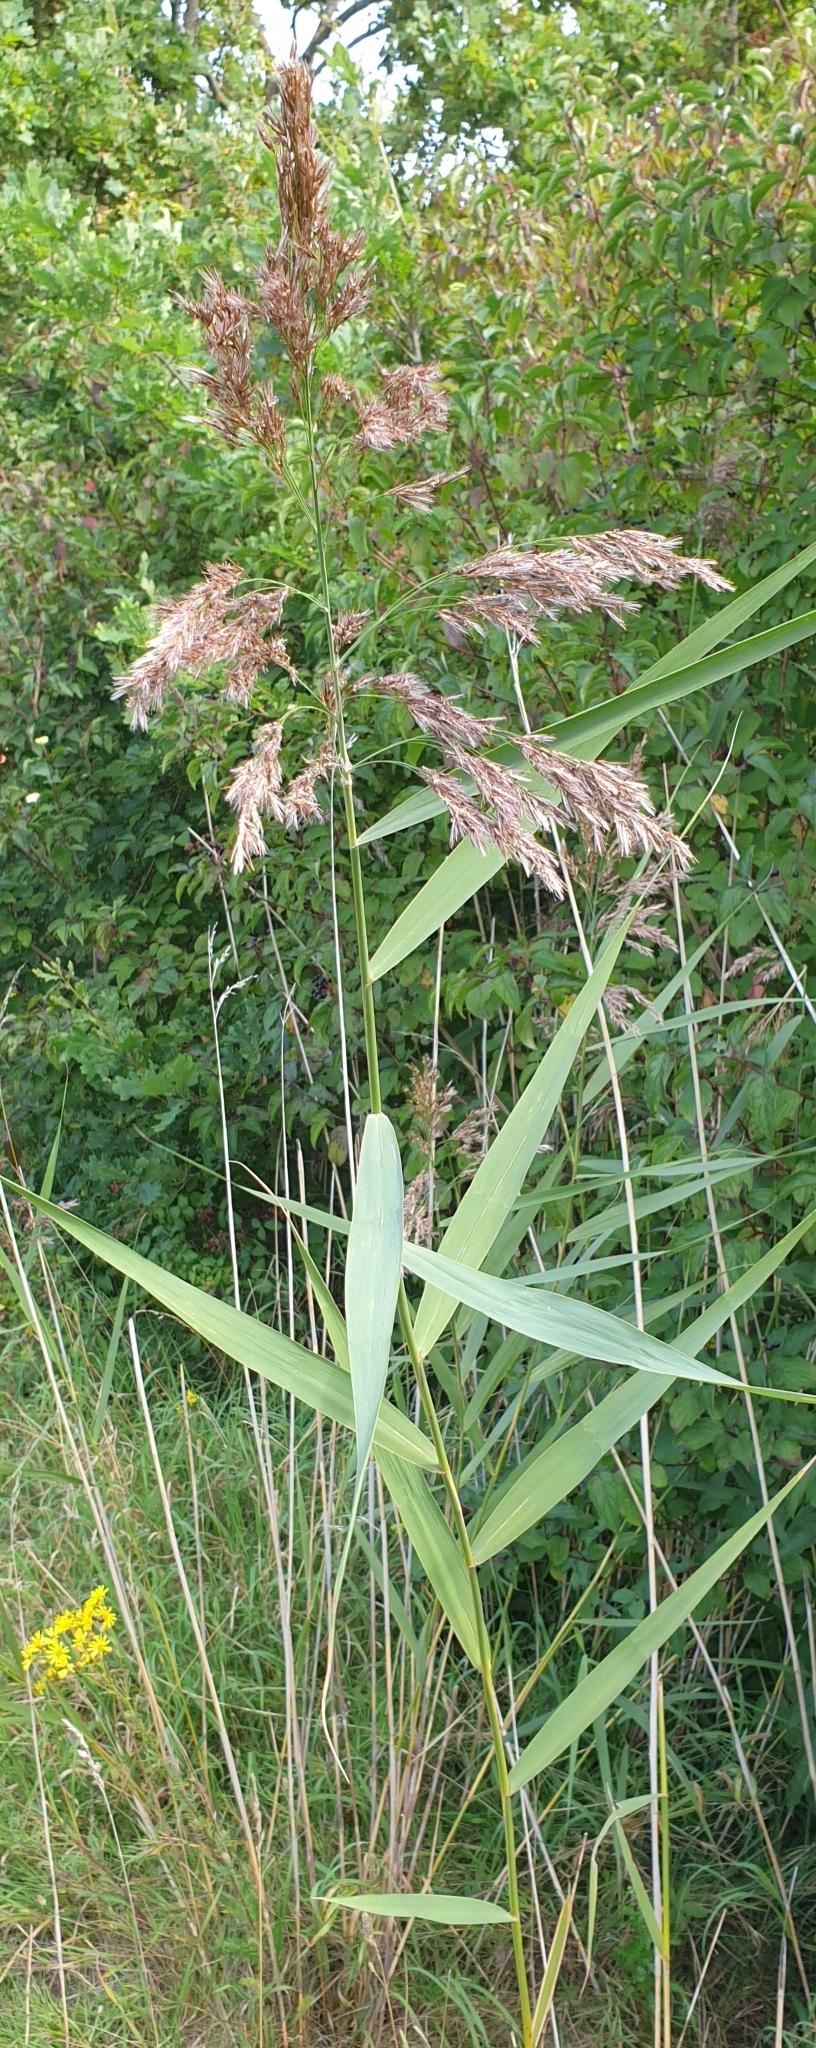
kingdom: Plantae
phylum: Tracheophyta
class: Liliopsida
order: Poales
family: Poaceae
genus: Phragmites
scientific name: Phragmites australis
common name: Common reed
